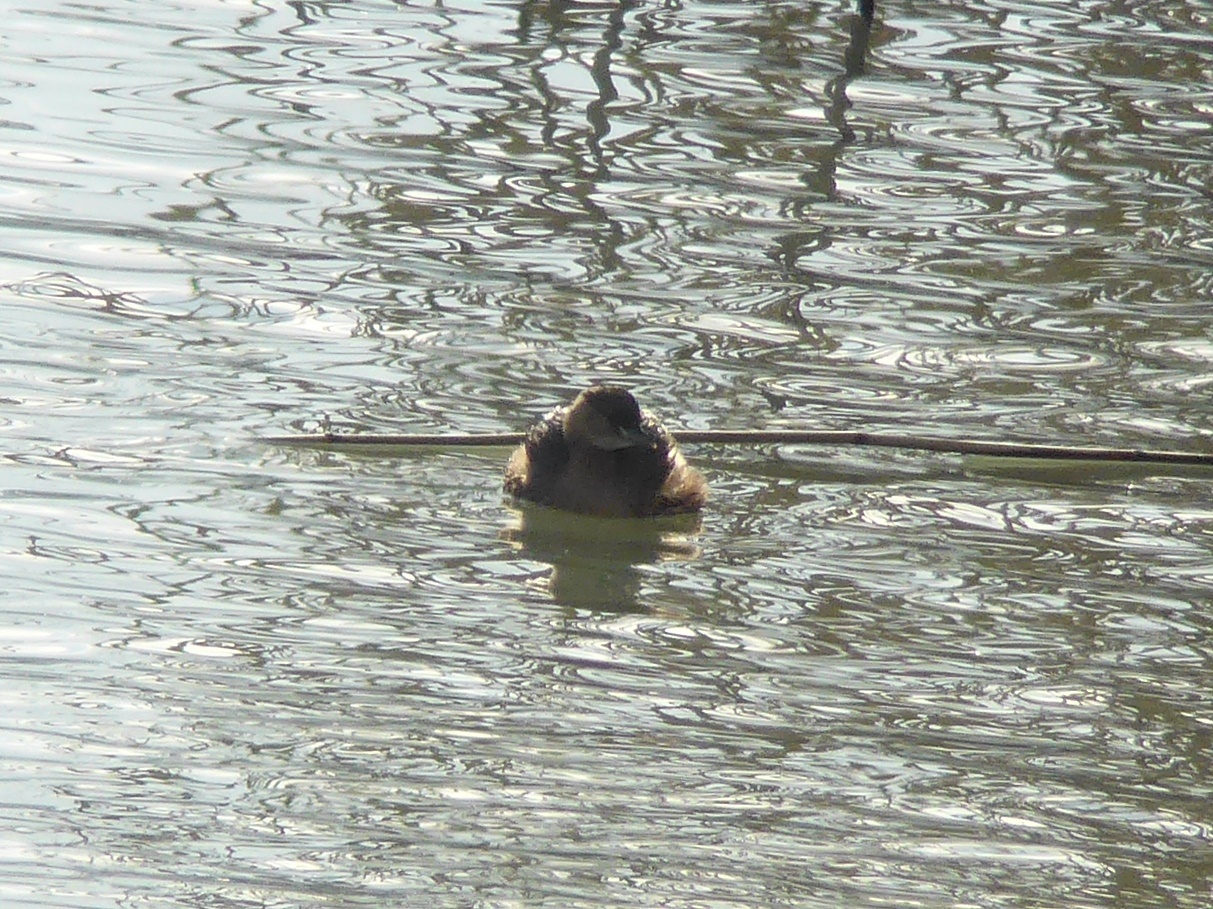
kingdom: Animalia
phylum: Chordata
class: Aves
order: Podicipediformes
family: Podicipedidae
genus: Tachybaptus
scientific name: Tachybaptus ruficollis
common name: Little grebe
